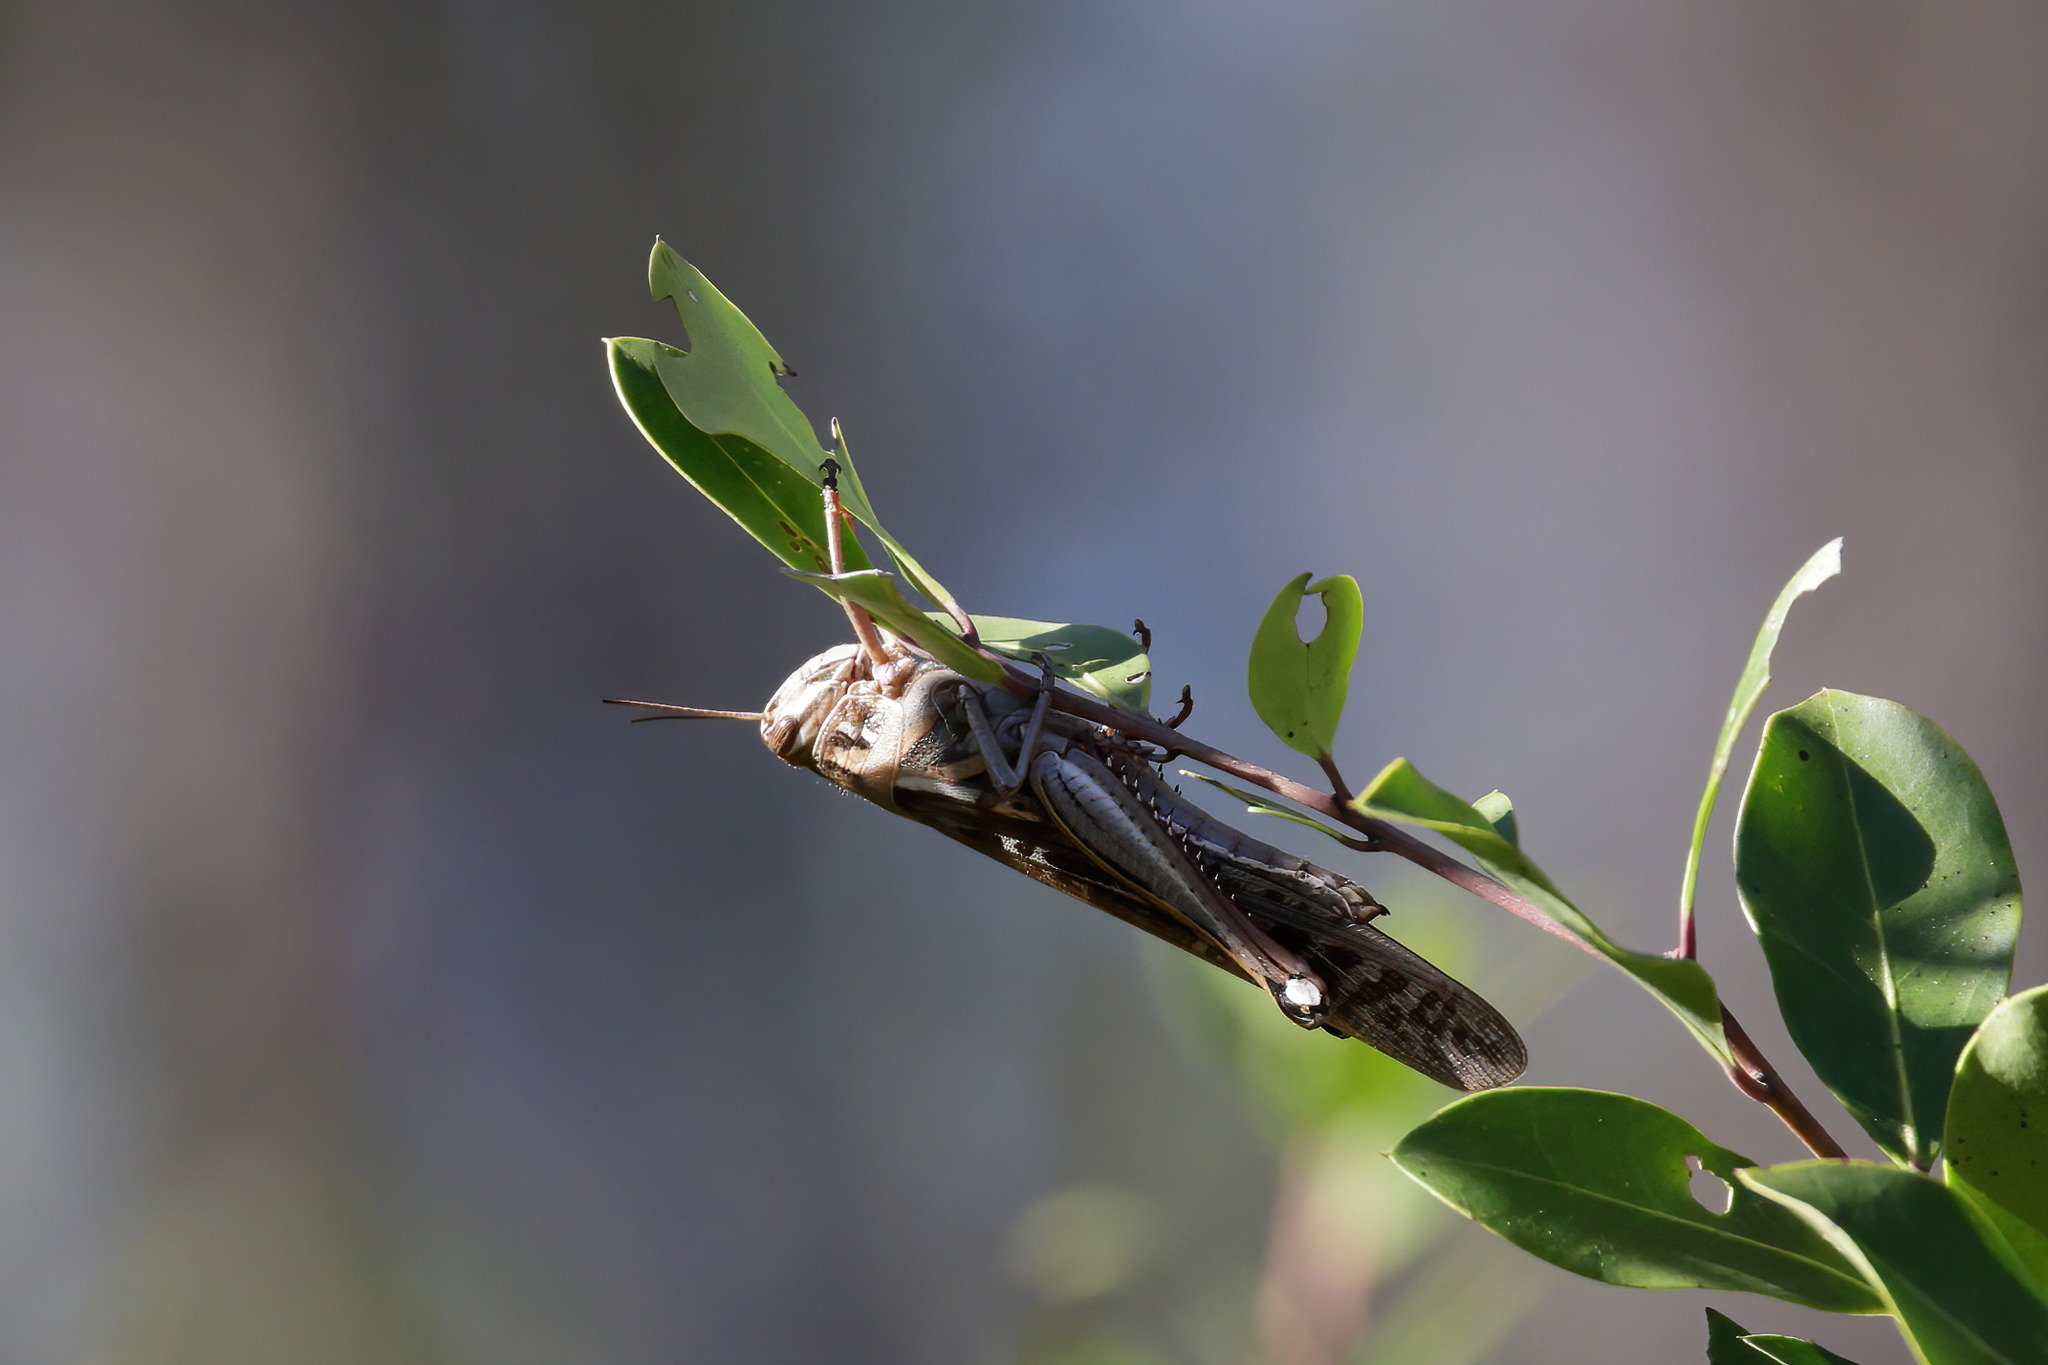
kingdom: Animalia
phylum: Arthropoda
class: Insecta
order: Orthoptera
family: Acrididae
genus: Schistocerca
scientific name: Schistocerca americana
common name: American bird locust
